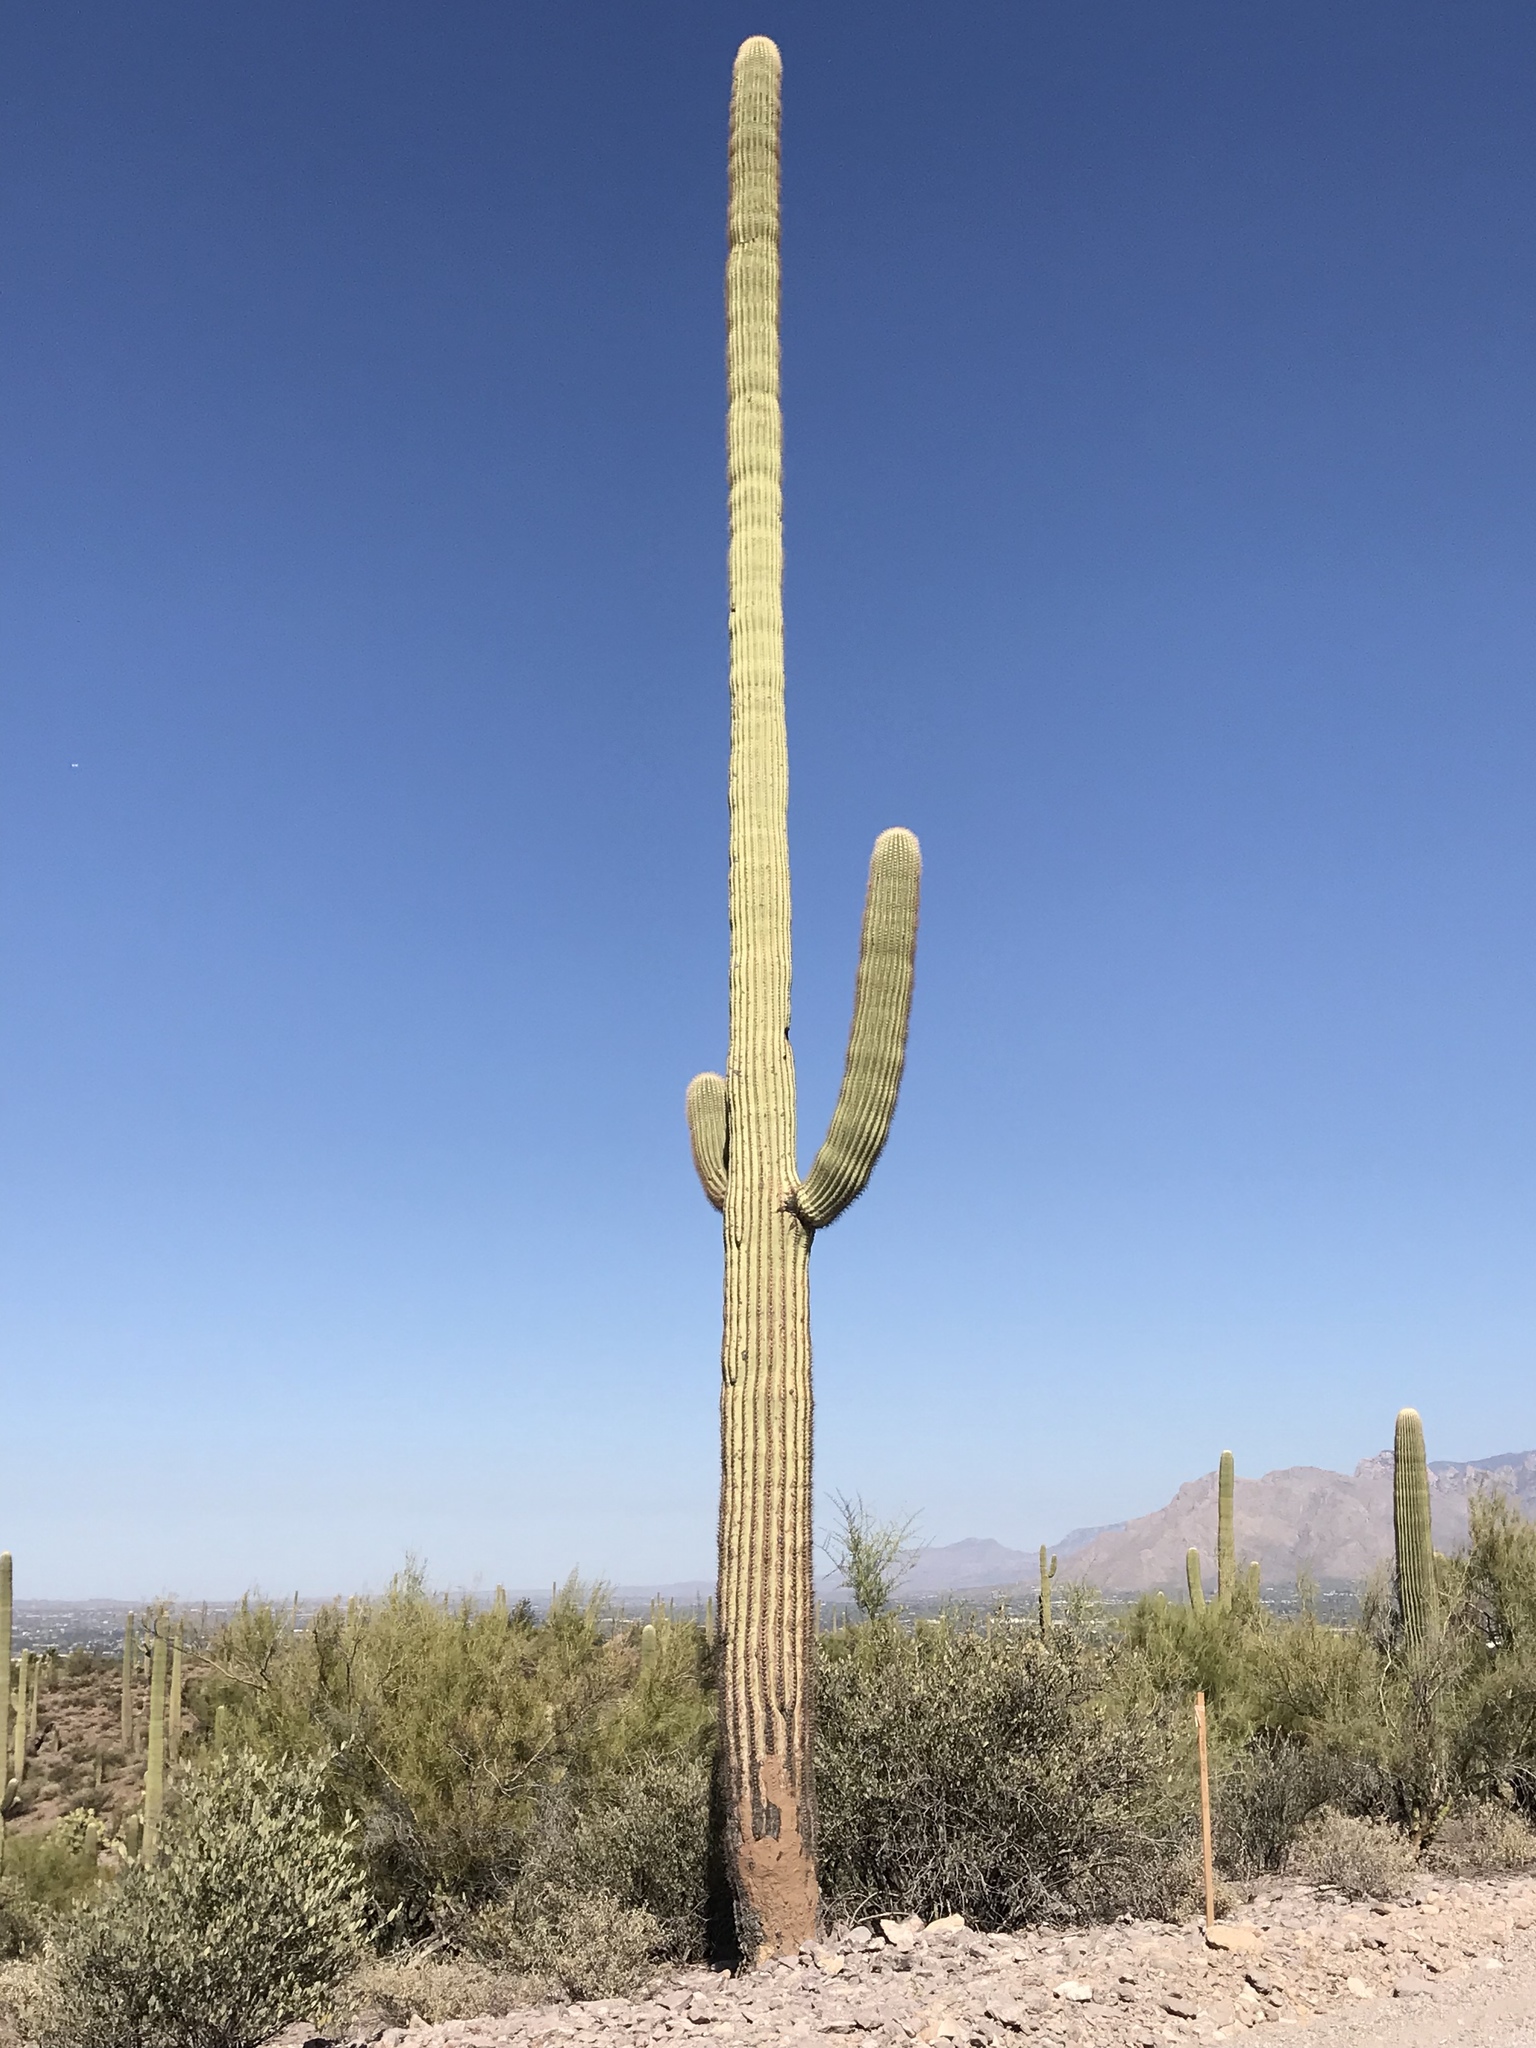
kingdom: Plantae
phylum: Tracheophyta
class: Magnoliopsida
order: Caryophyllales
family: Cactaceae
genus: Carnegiea
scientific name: Carnegiea gigantea
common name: Saguaro
